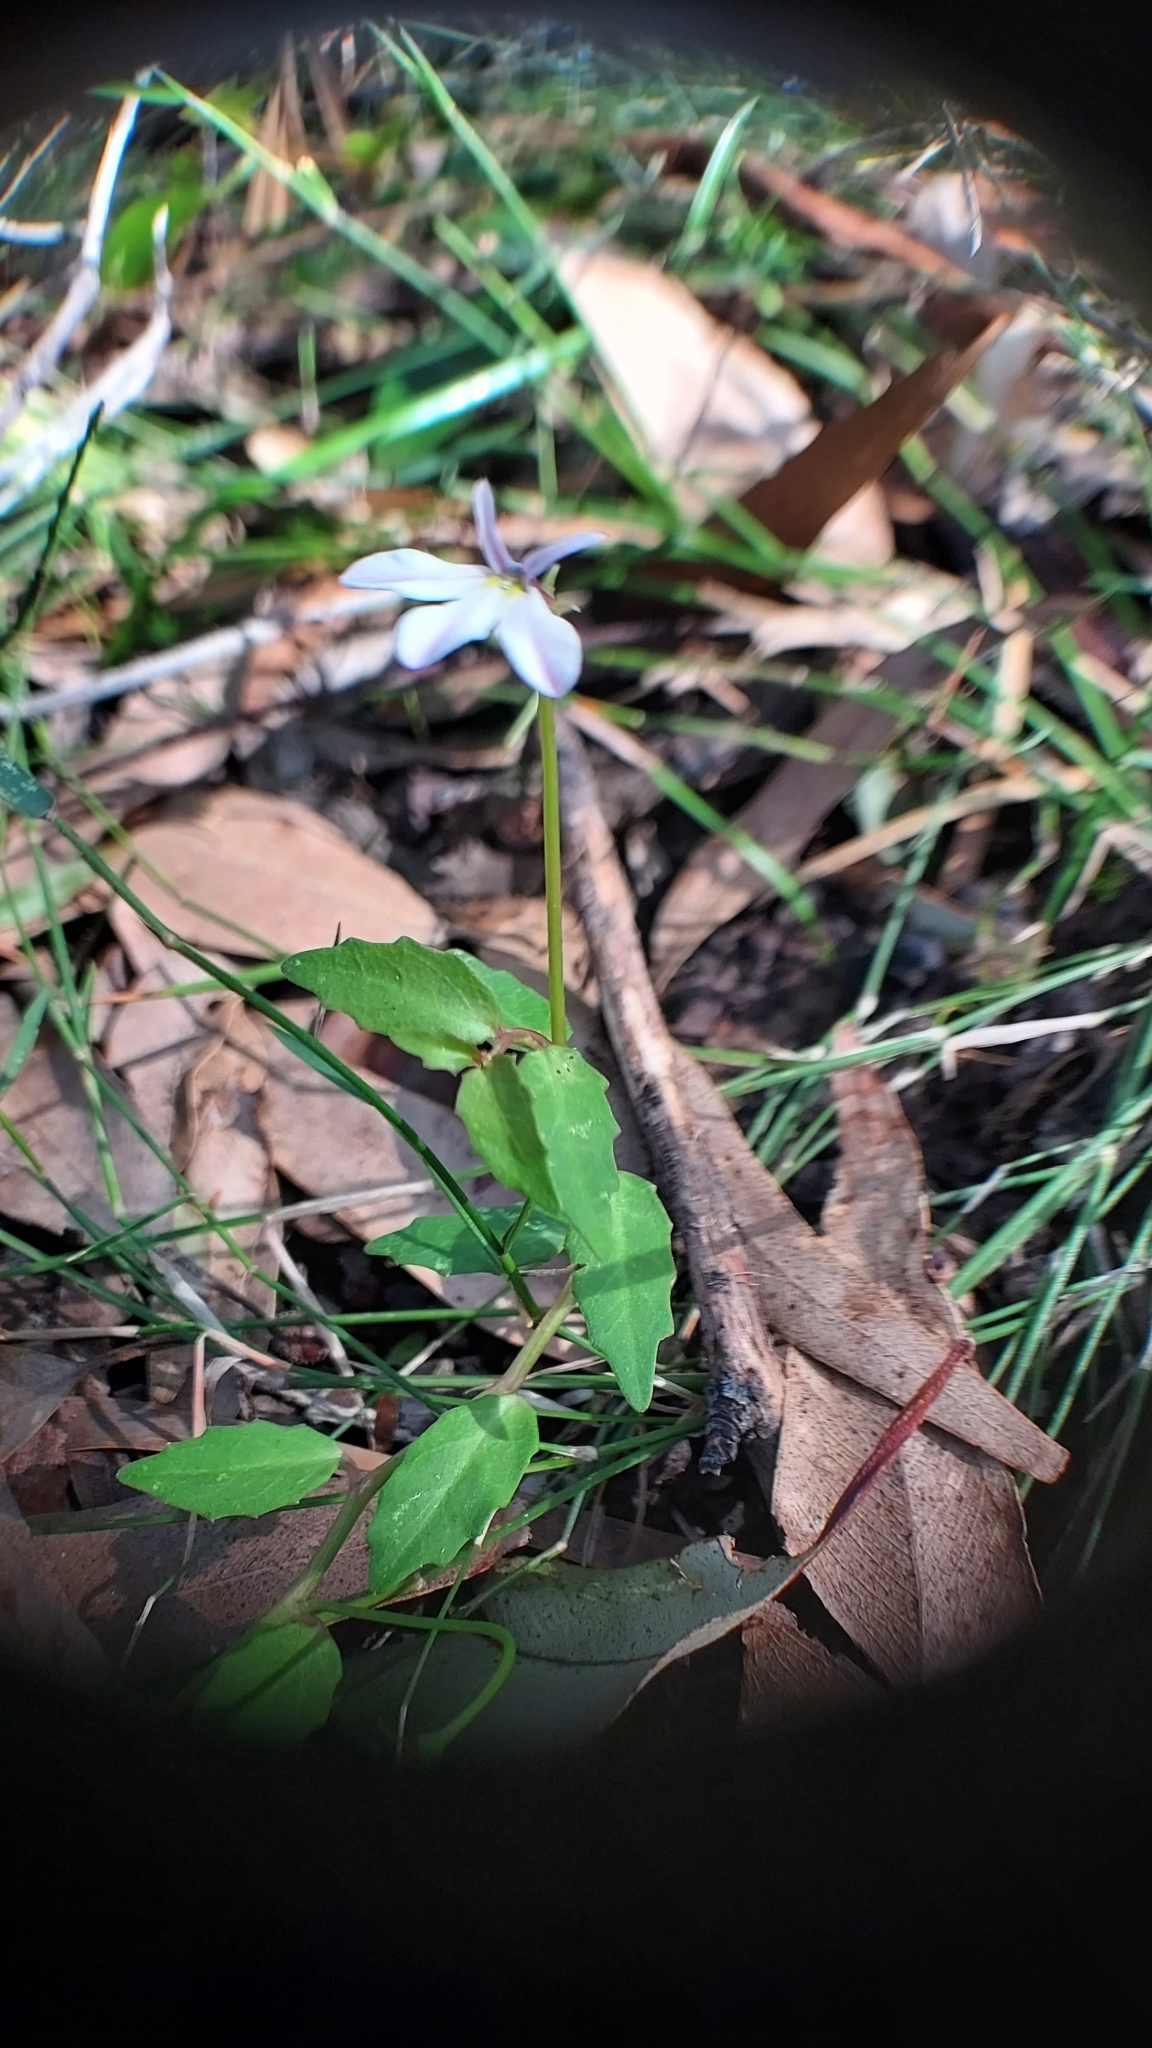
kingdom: Plantae
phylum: Tracheophyta
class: Magnoliopsida
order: Asterales
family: Campanulaceae
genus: Lobelia
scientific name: Lobelia purpurascens
